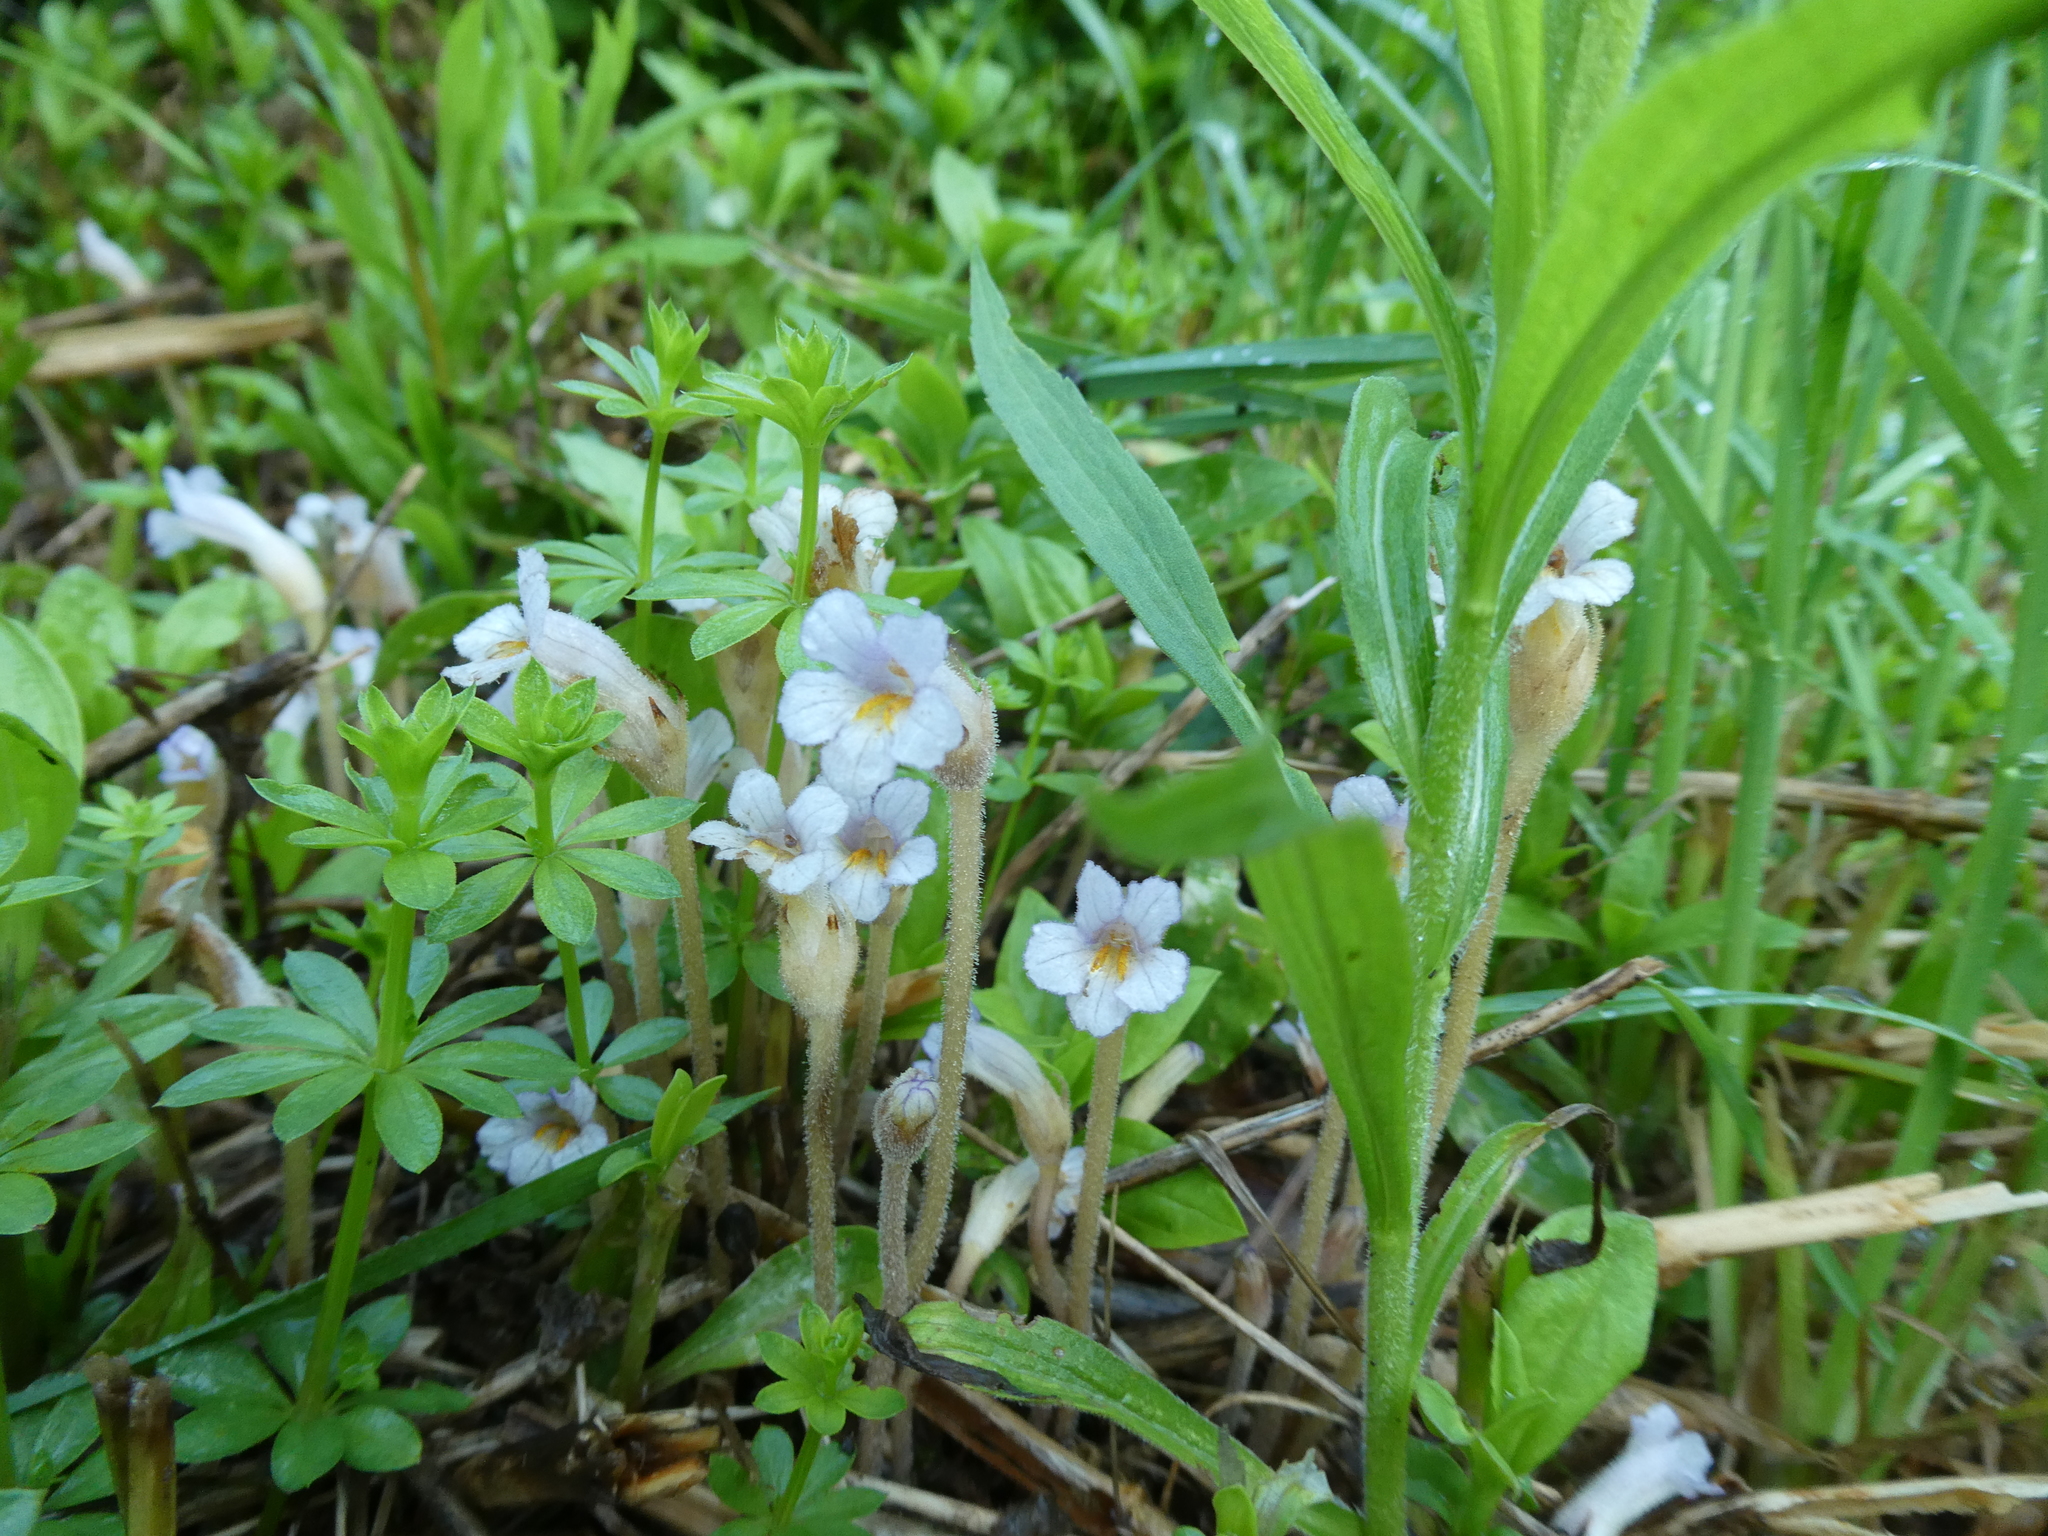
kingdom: Plantae
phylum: Tracheophyta
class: Magnoliopsida
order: Lamiales
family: Orobanchaceae
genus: Aphyllon
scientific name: Aphyllon uniflorum
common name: One-flowered broomrape
